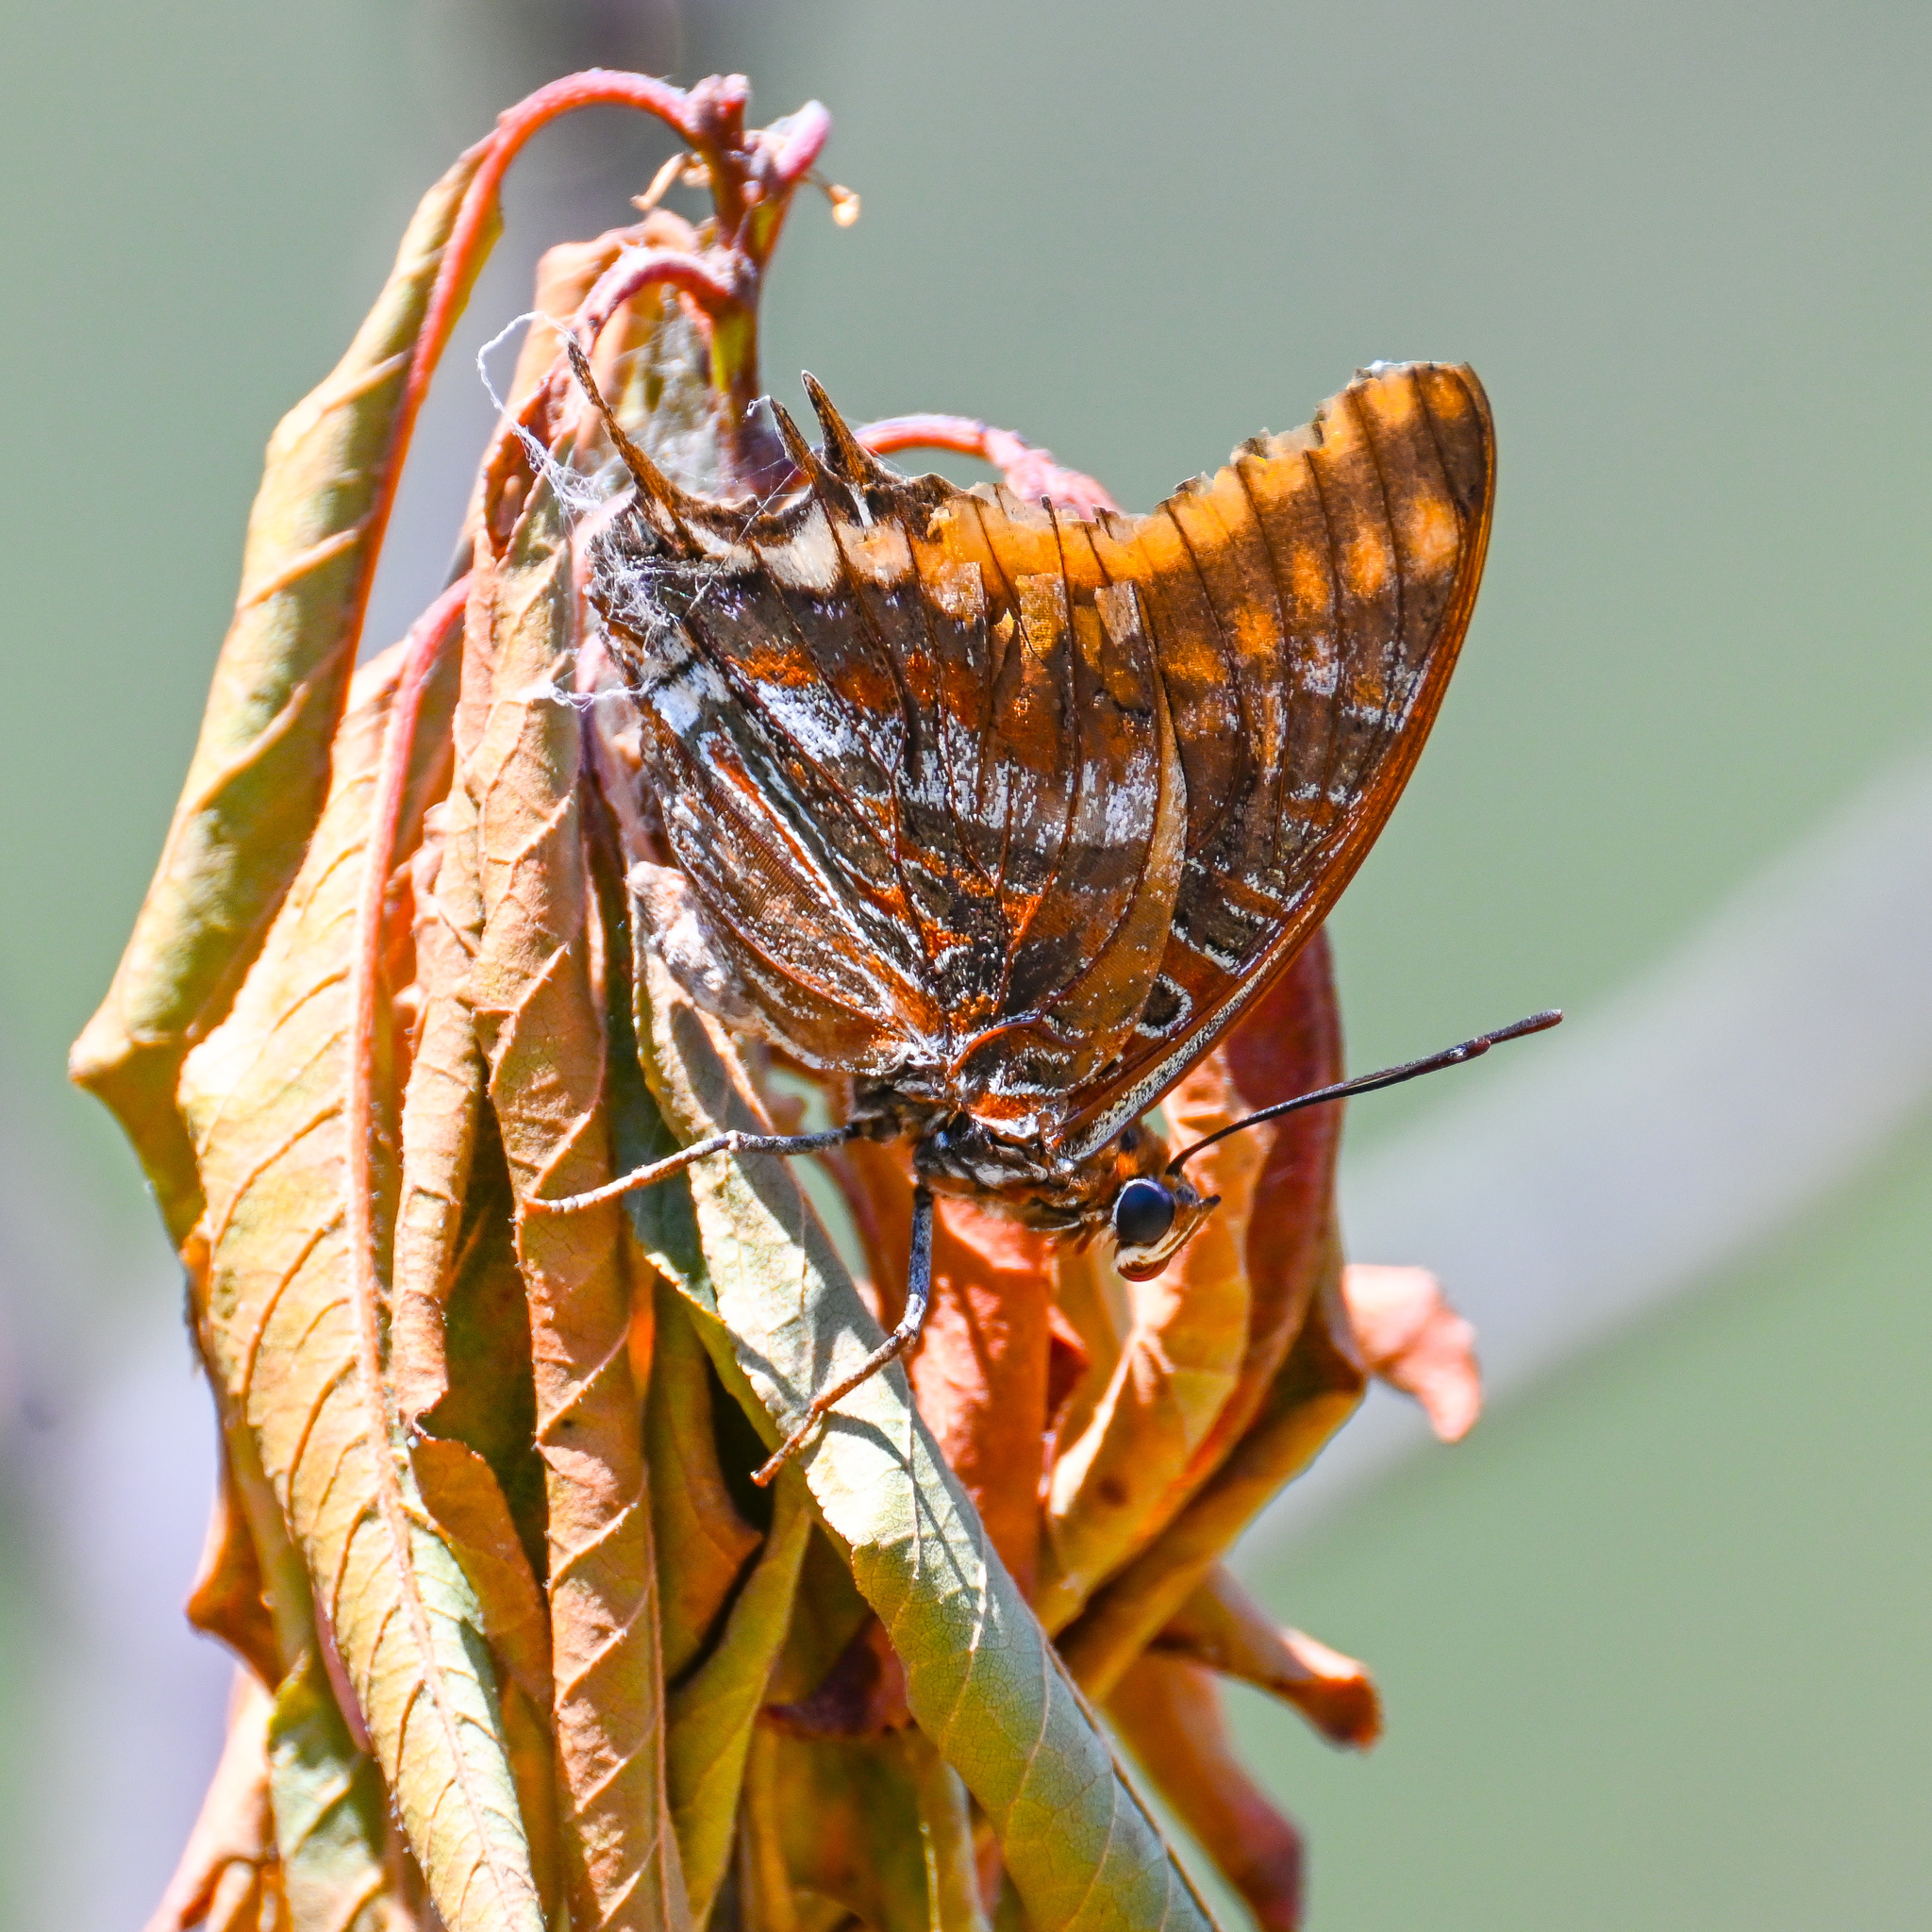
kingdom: Animalia
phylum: Arthropoda
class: Insecta
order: Lepidoptera
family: Nymphalidae
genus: Charaxes
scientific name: Charaxes jasius
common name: Two tailed pasha
